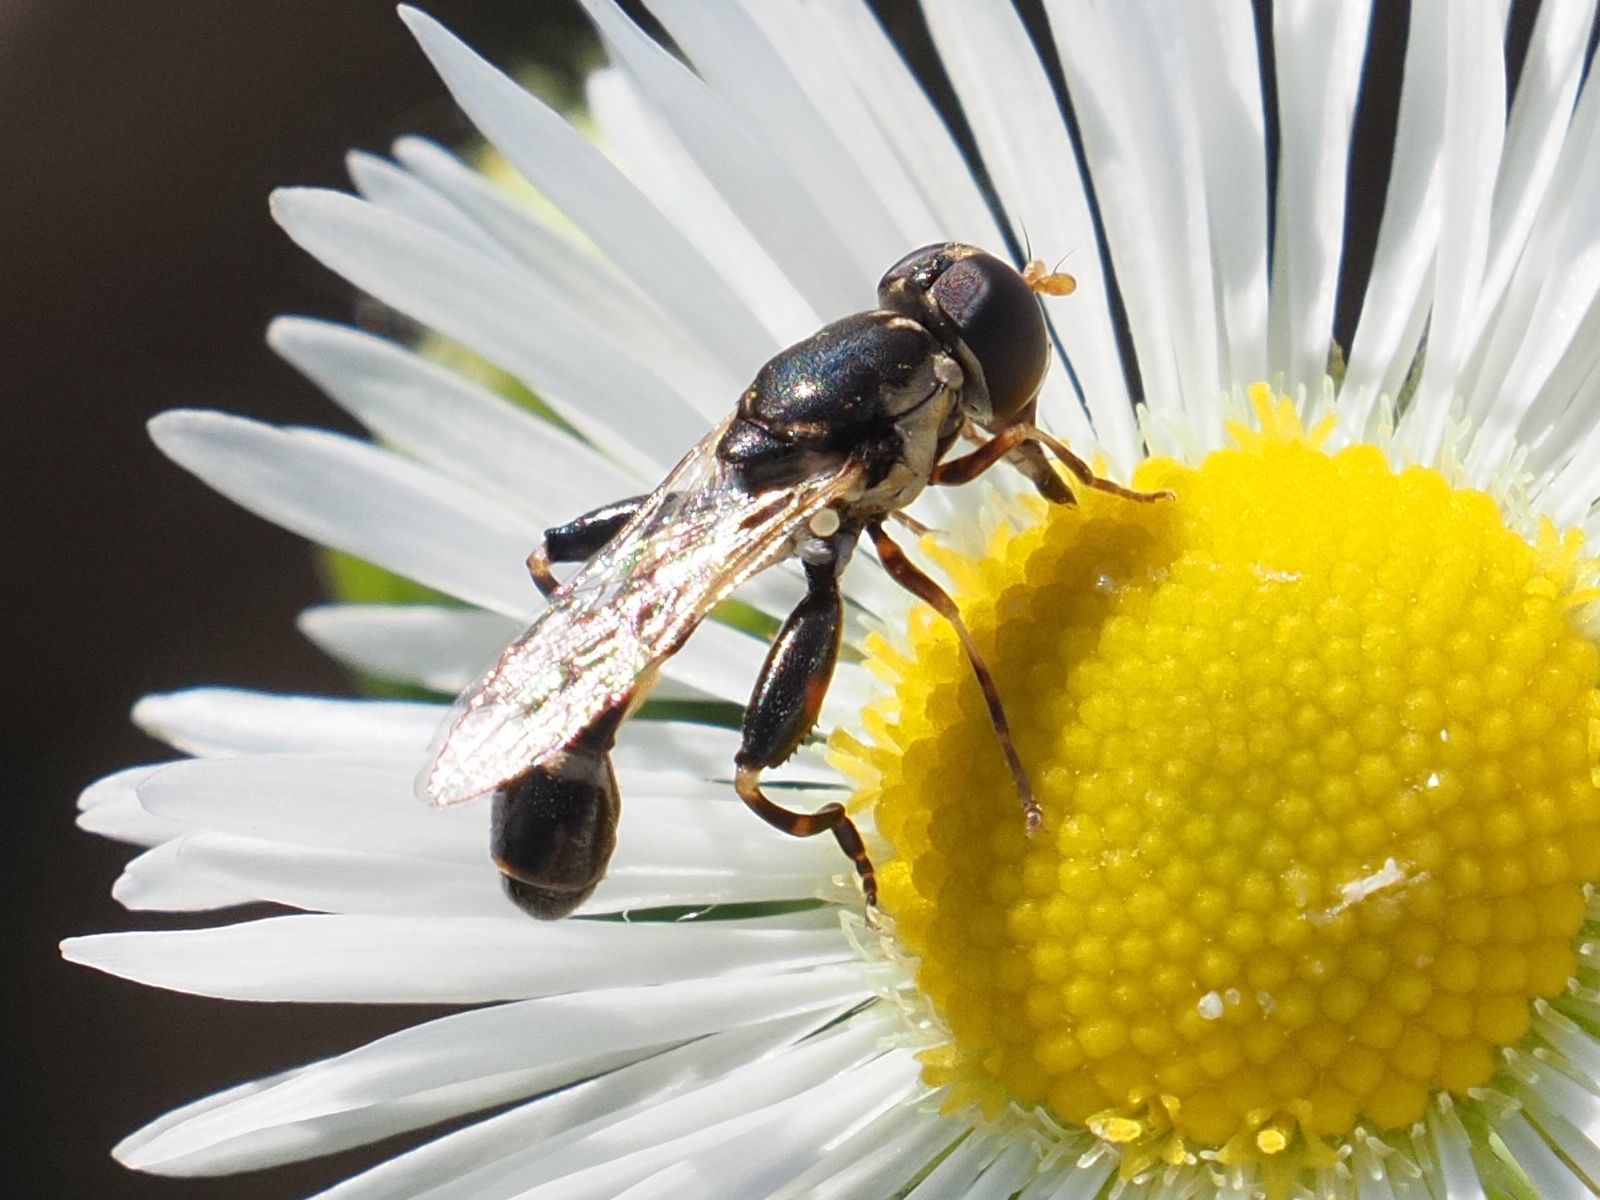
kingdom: Animalia
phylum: Arthropoda
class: Insecta
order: Diptera
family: Syrphidae
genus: Syritta
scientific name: Syritta pipiens
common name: Hover fly
